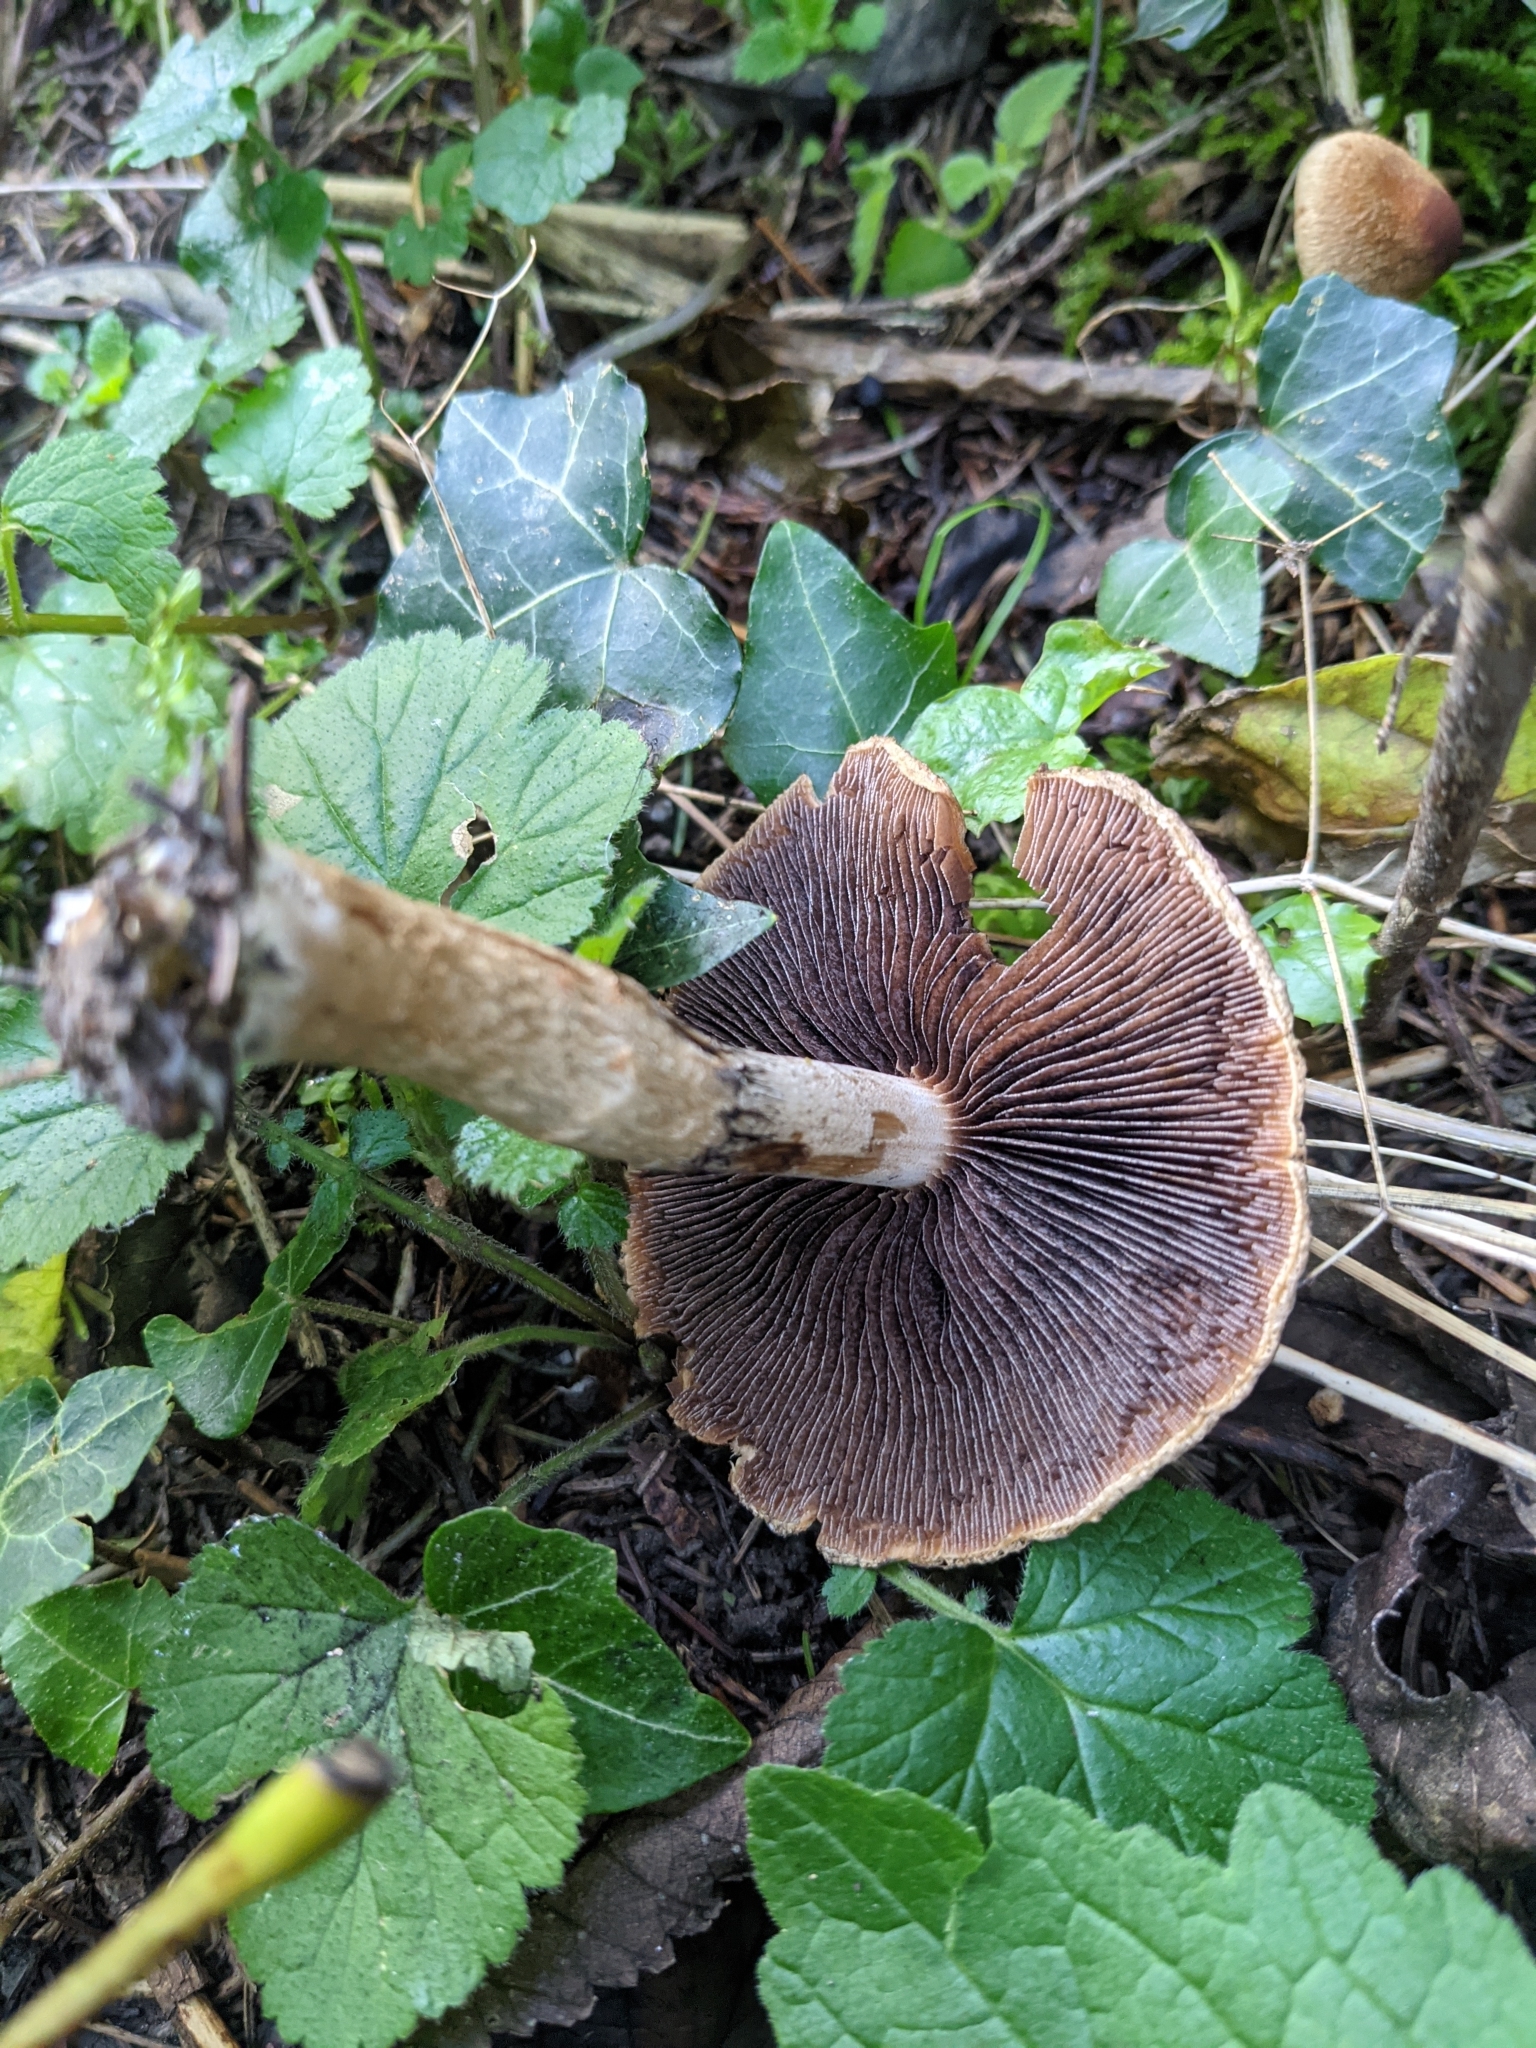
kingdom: Fungi
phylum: Basidiomycota
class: Agaricomycetes
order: Agaricales
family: Psathyrellaceae
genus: Lacrymaria
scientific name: Lacrymaria lacrymabunda
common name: Weeping widow
